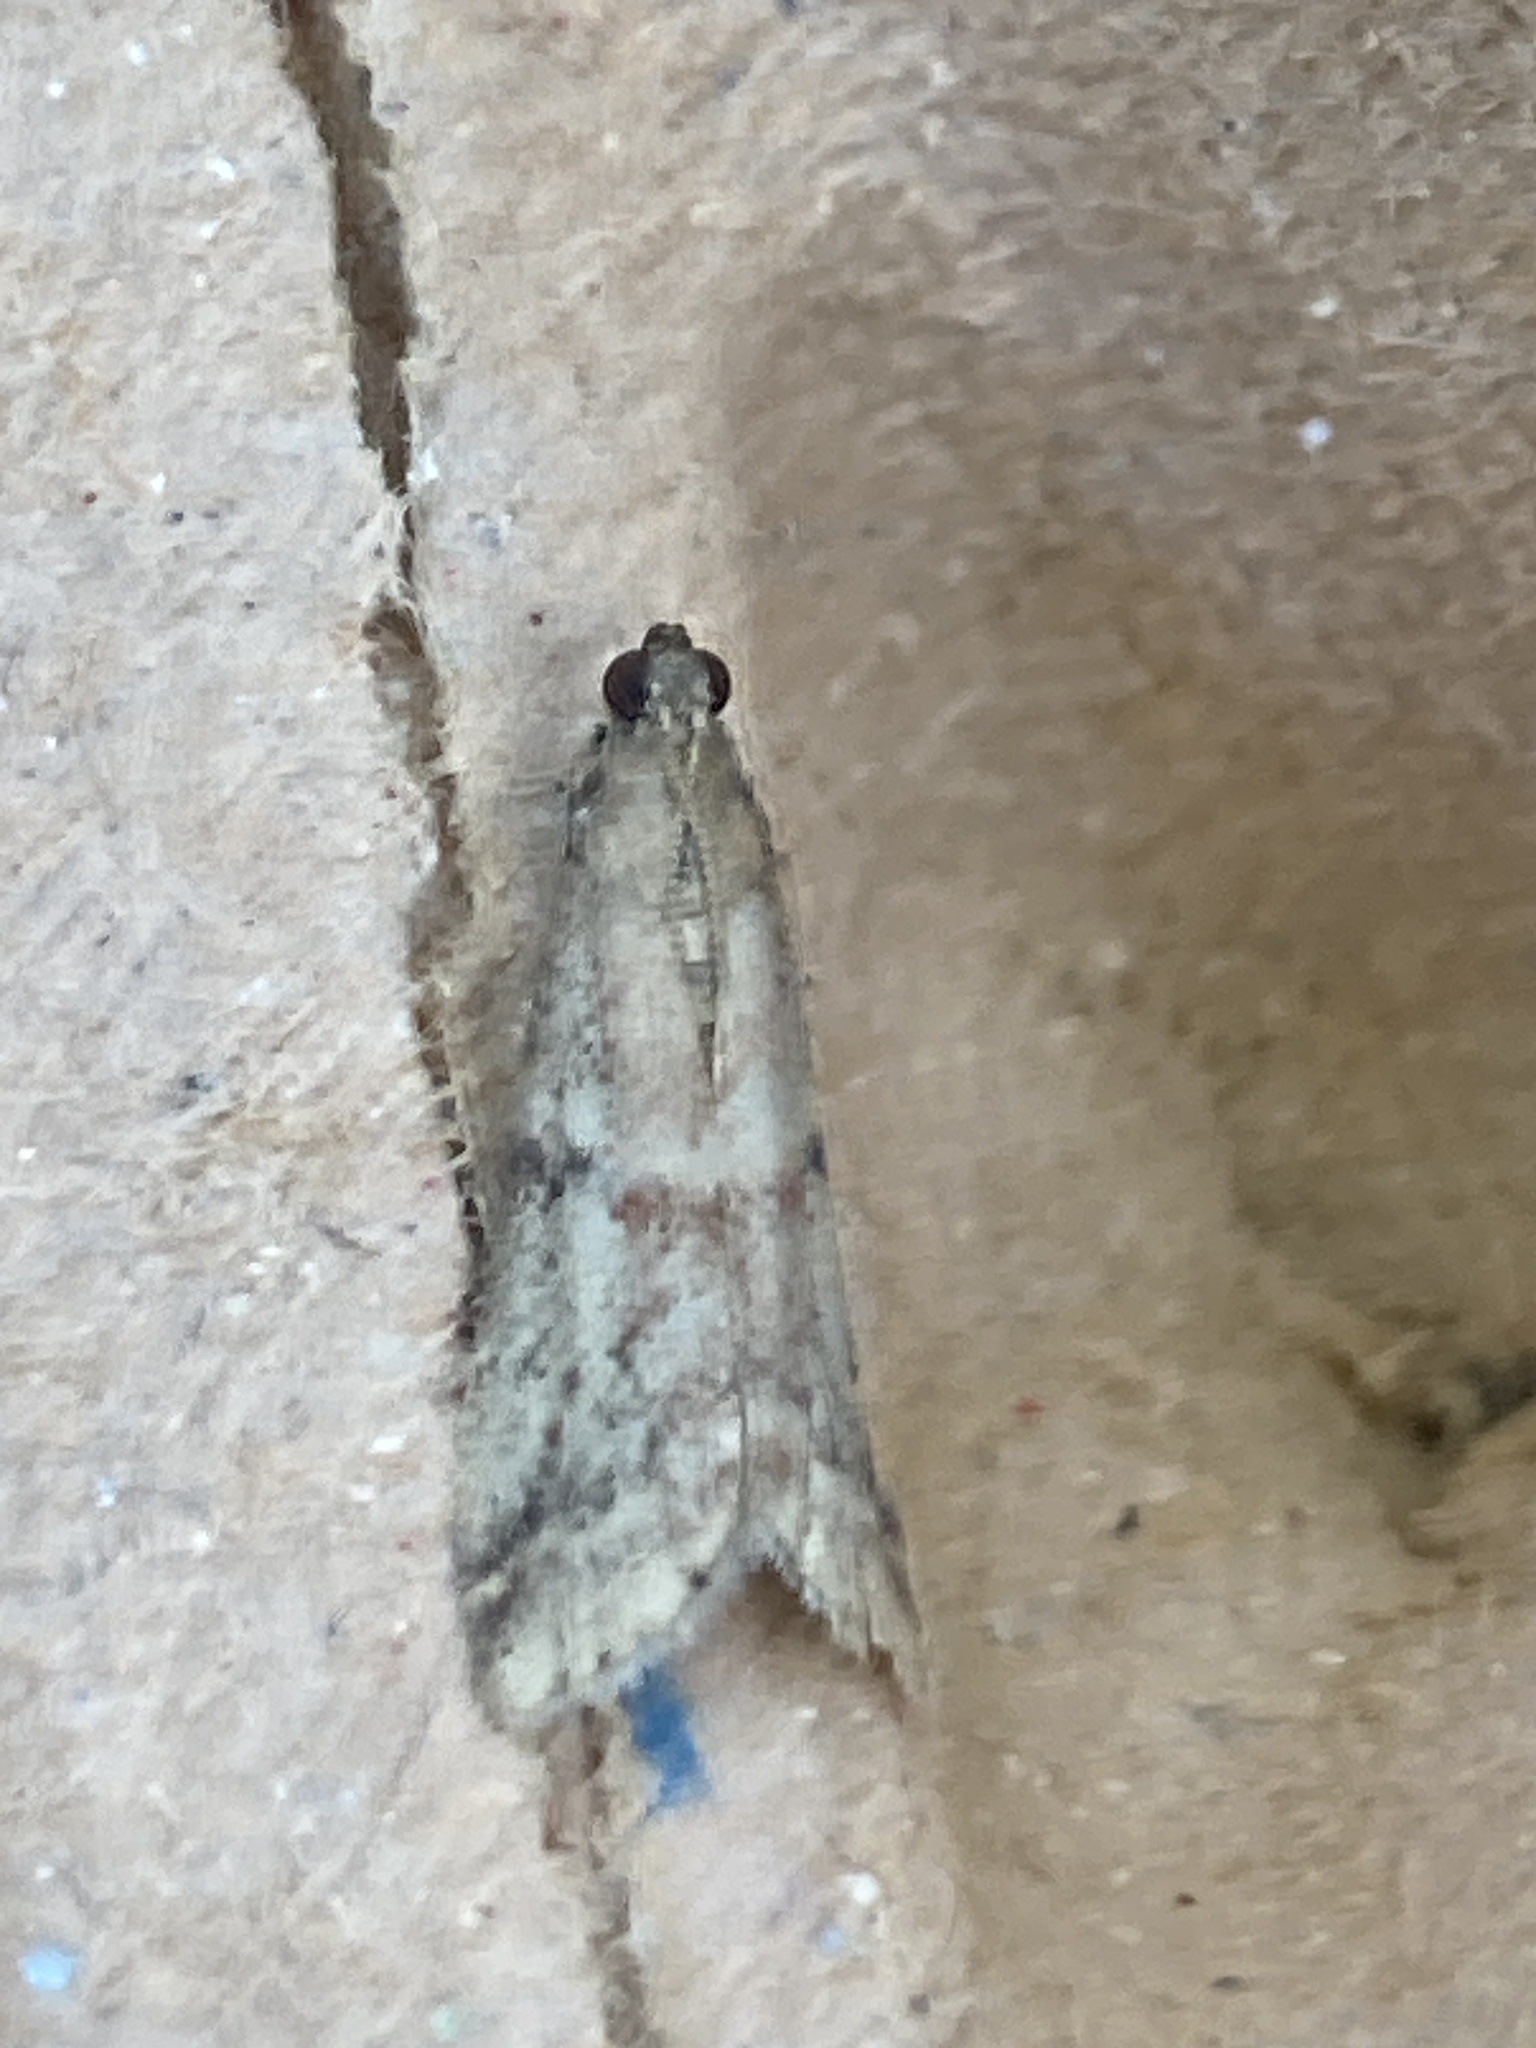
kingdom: Animalia
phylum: Arthropoda
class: Insecta
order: Lepidoptera
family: Pyralidae
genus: Ephestia
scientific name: Ephestia woodiella
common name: False cacao moth
